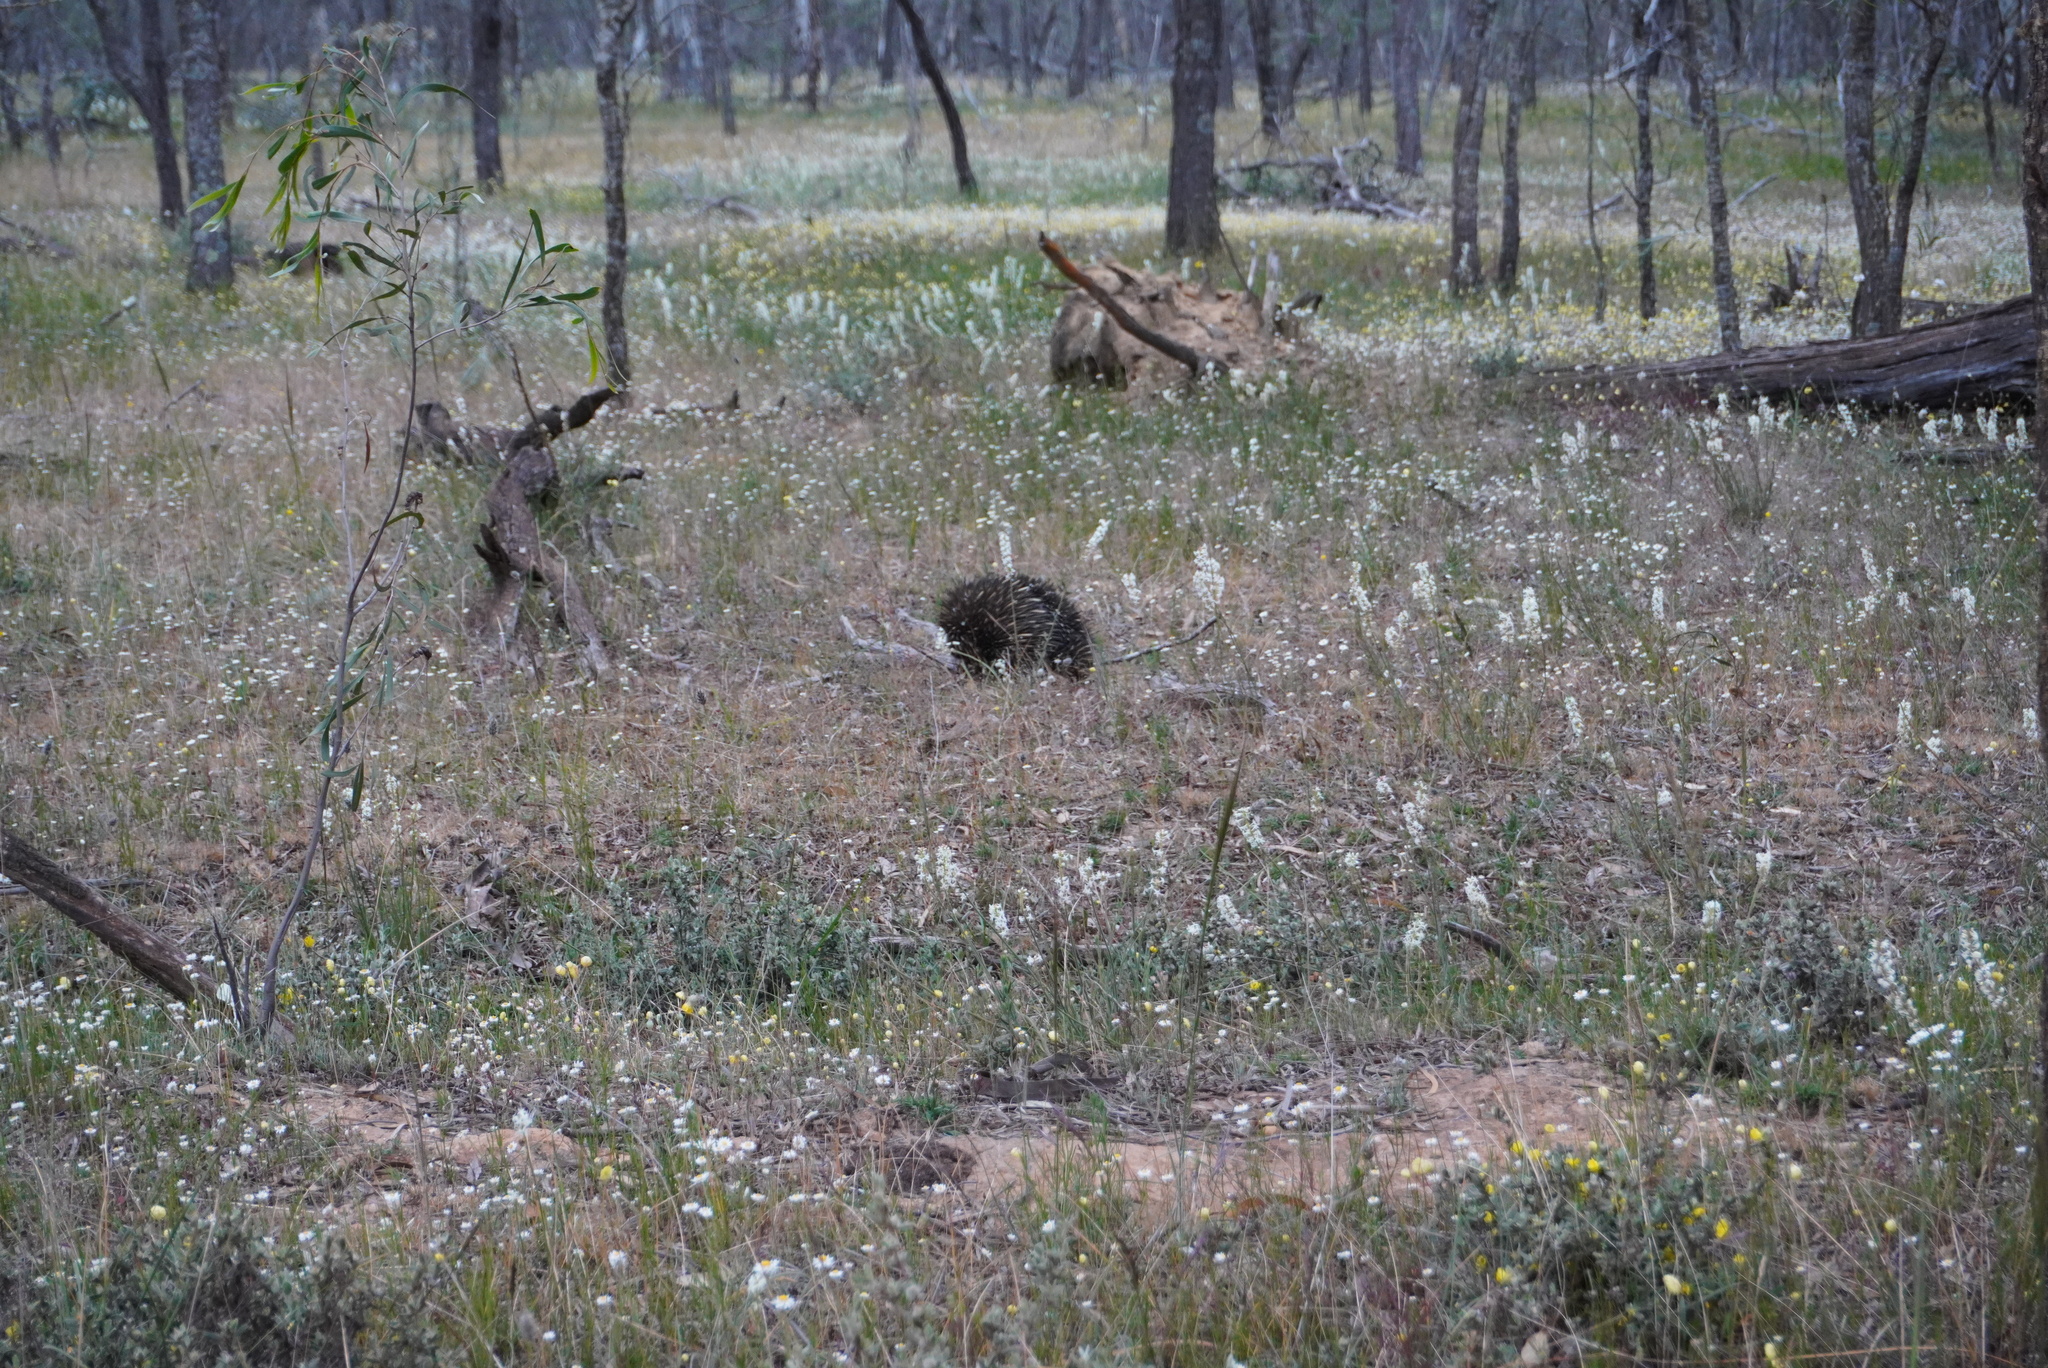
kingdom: Animalia
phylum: Chordata
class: Mammalia
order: Monotremata
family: Tachyglossidae
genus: Tachyglossus
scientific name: Tachyglossus aculeatus
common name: Short-beaked echidna
